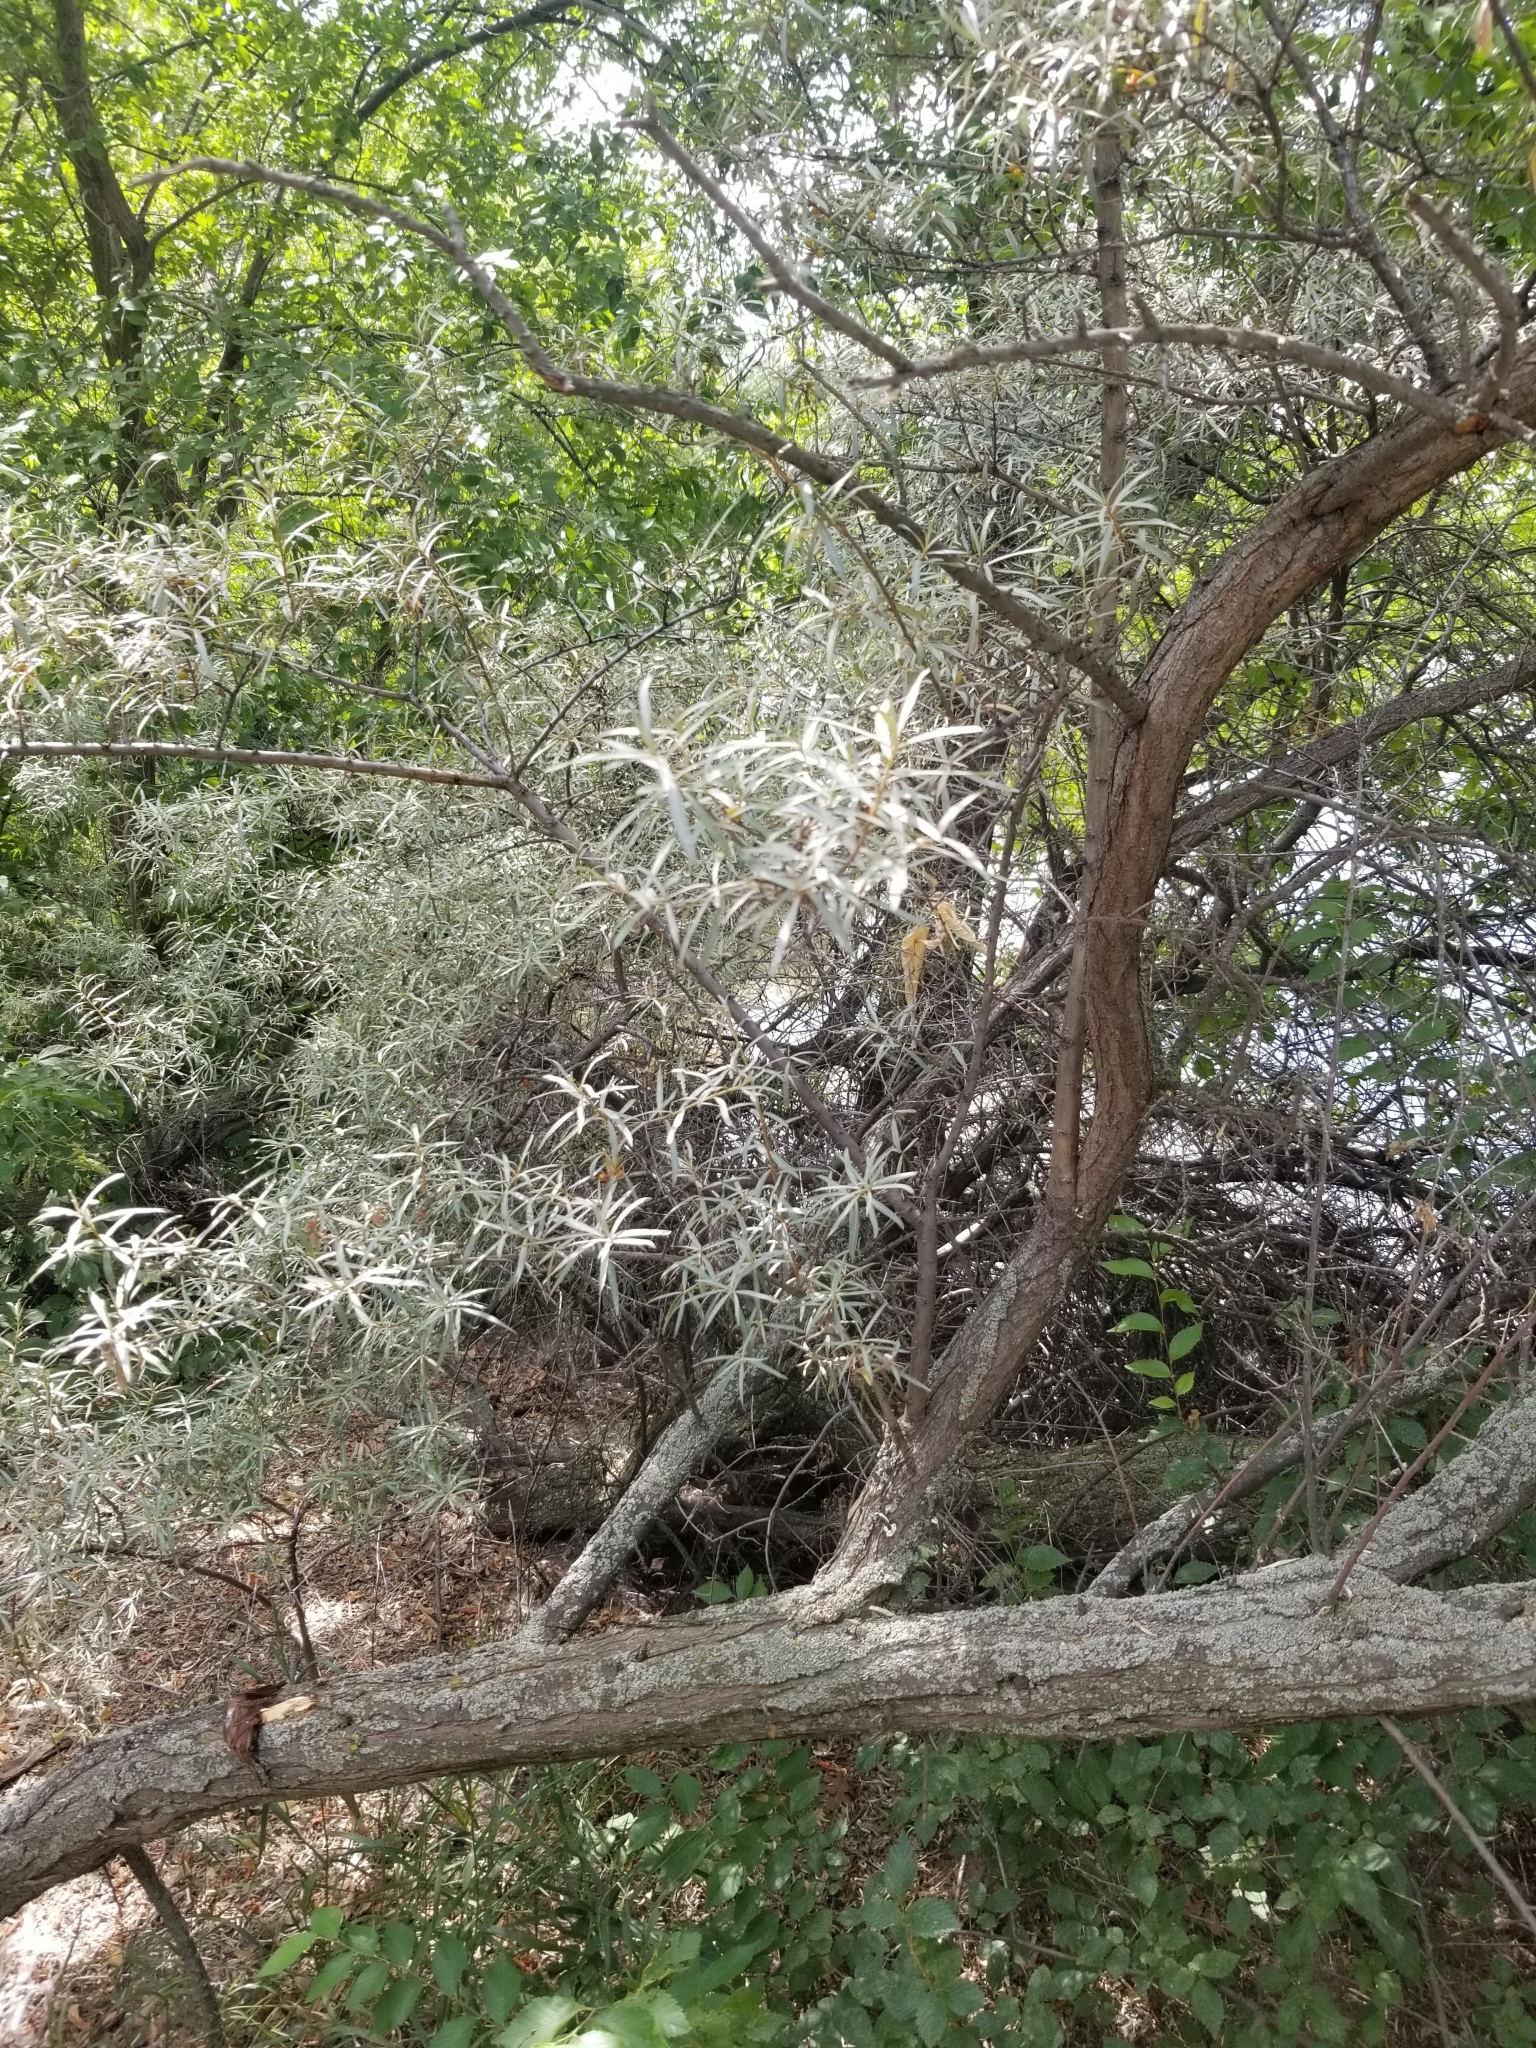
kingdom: Plantae
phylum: Tracheophyta
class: Magnoliopsida
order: Rosales
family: Elaeagnaceae
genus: Hippophae
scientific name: Hippophae rhamnoides
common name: Sea-buckthorn
